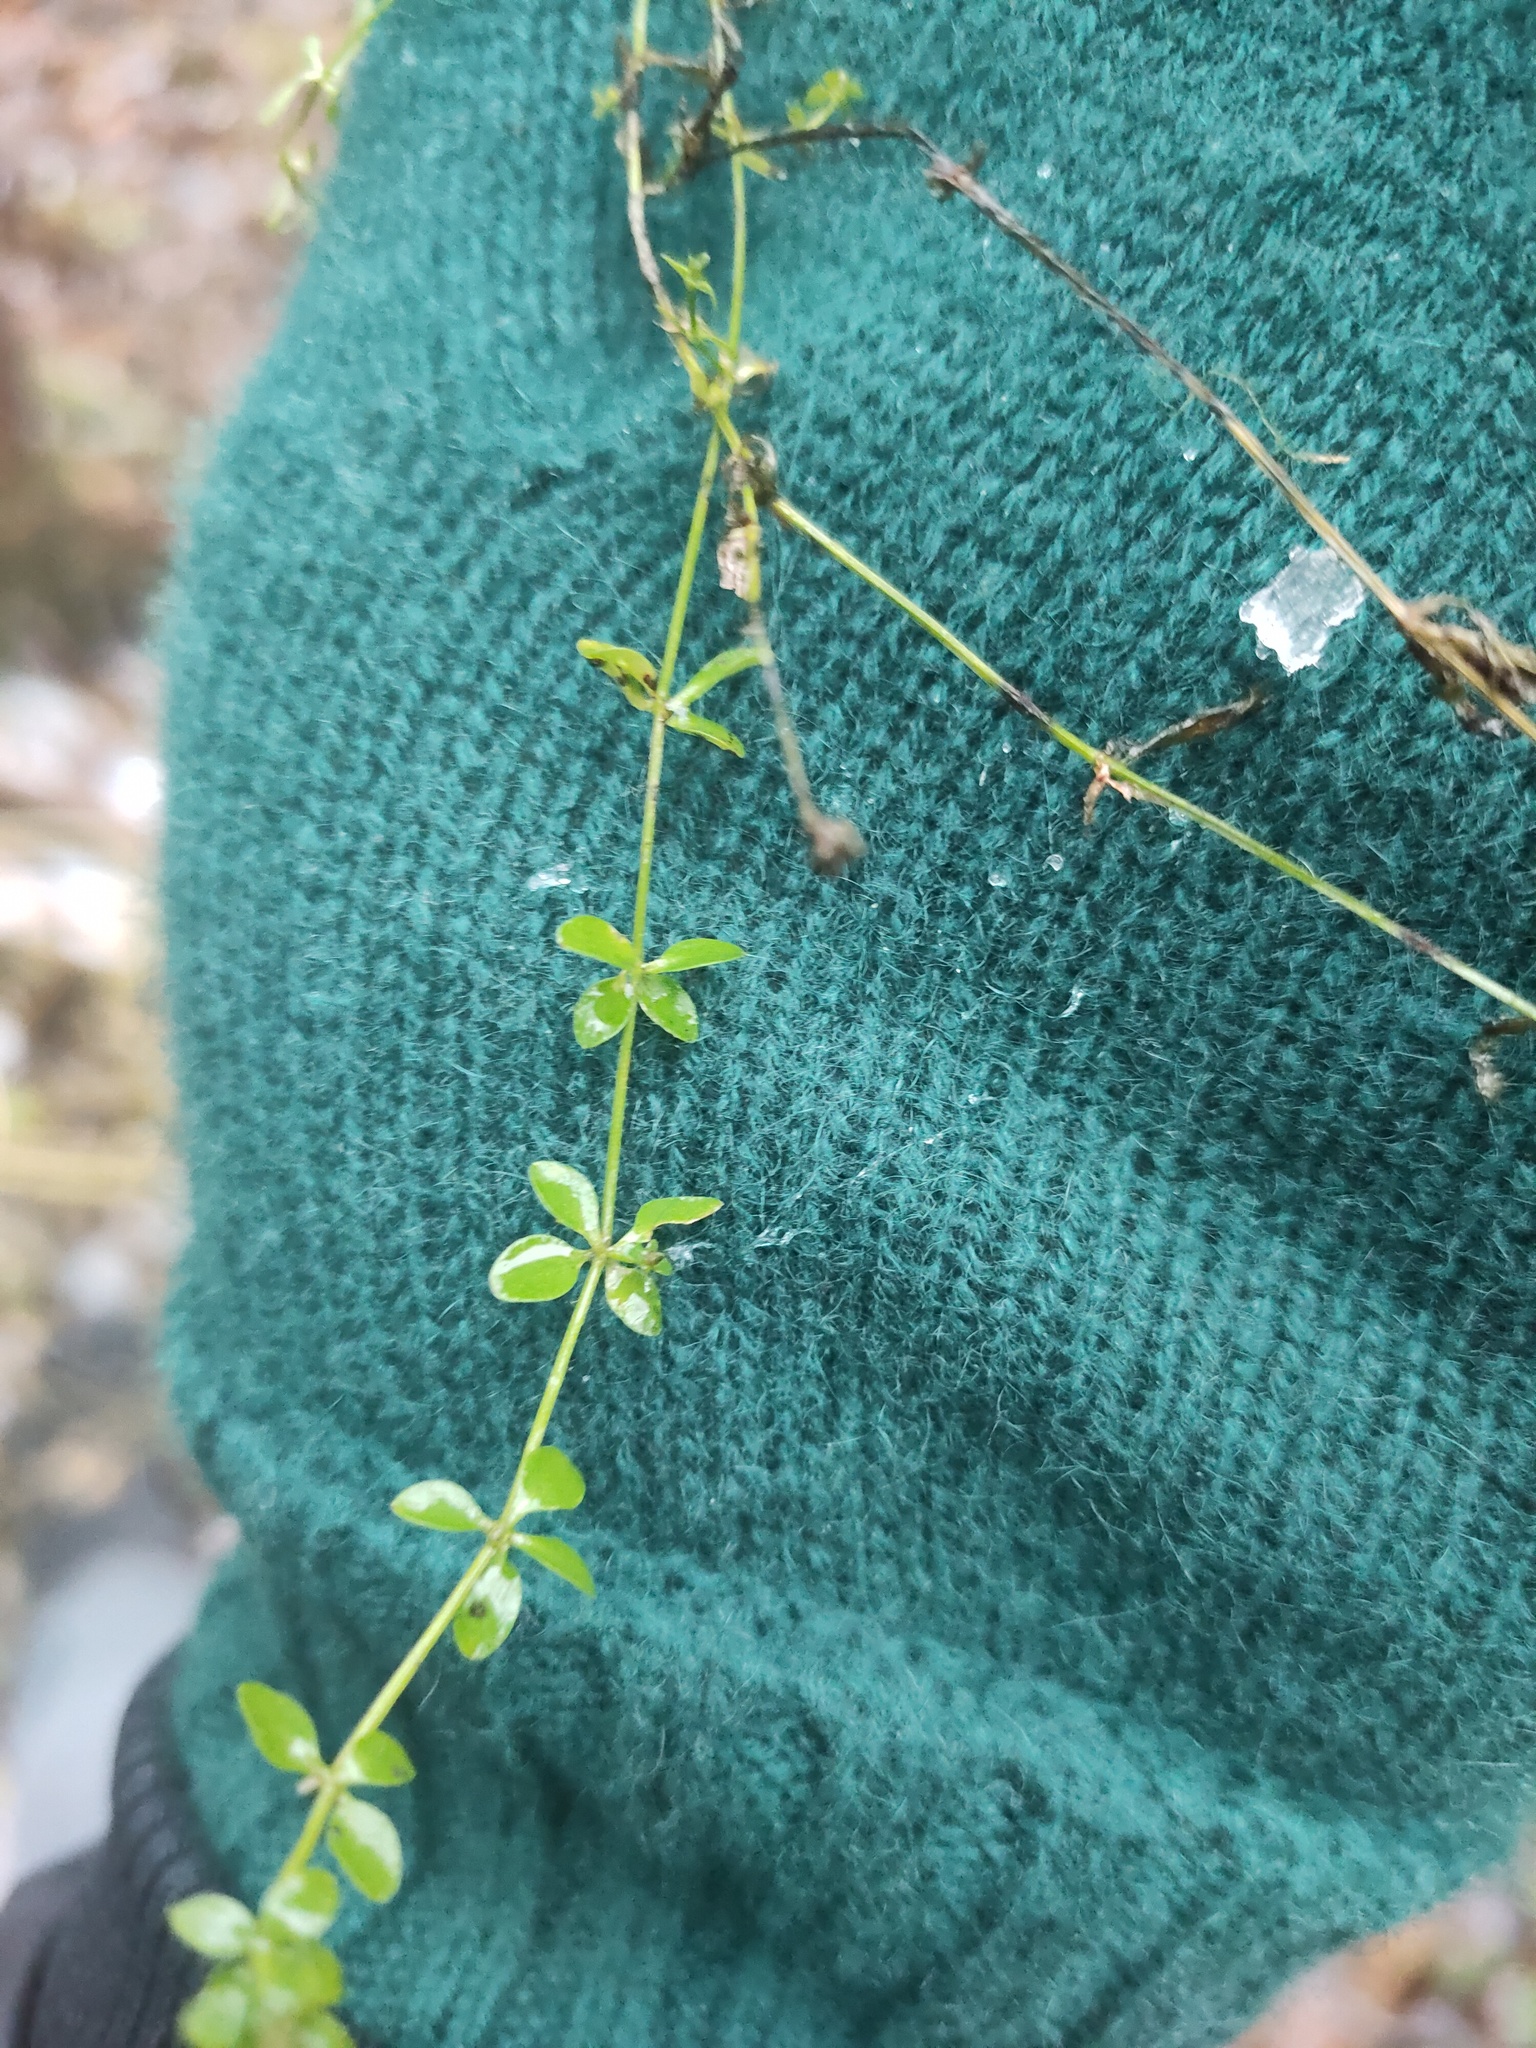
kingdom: Plantae
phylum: Tracheophyta
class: Magnoliopsida
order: Gentianales
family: Rubiaceae
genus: Galium
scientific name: Galium palustre
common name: Common marsh-bedstraw
